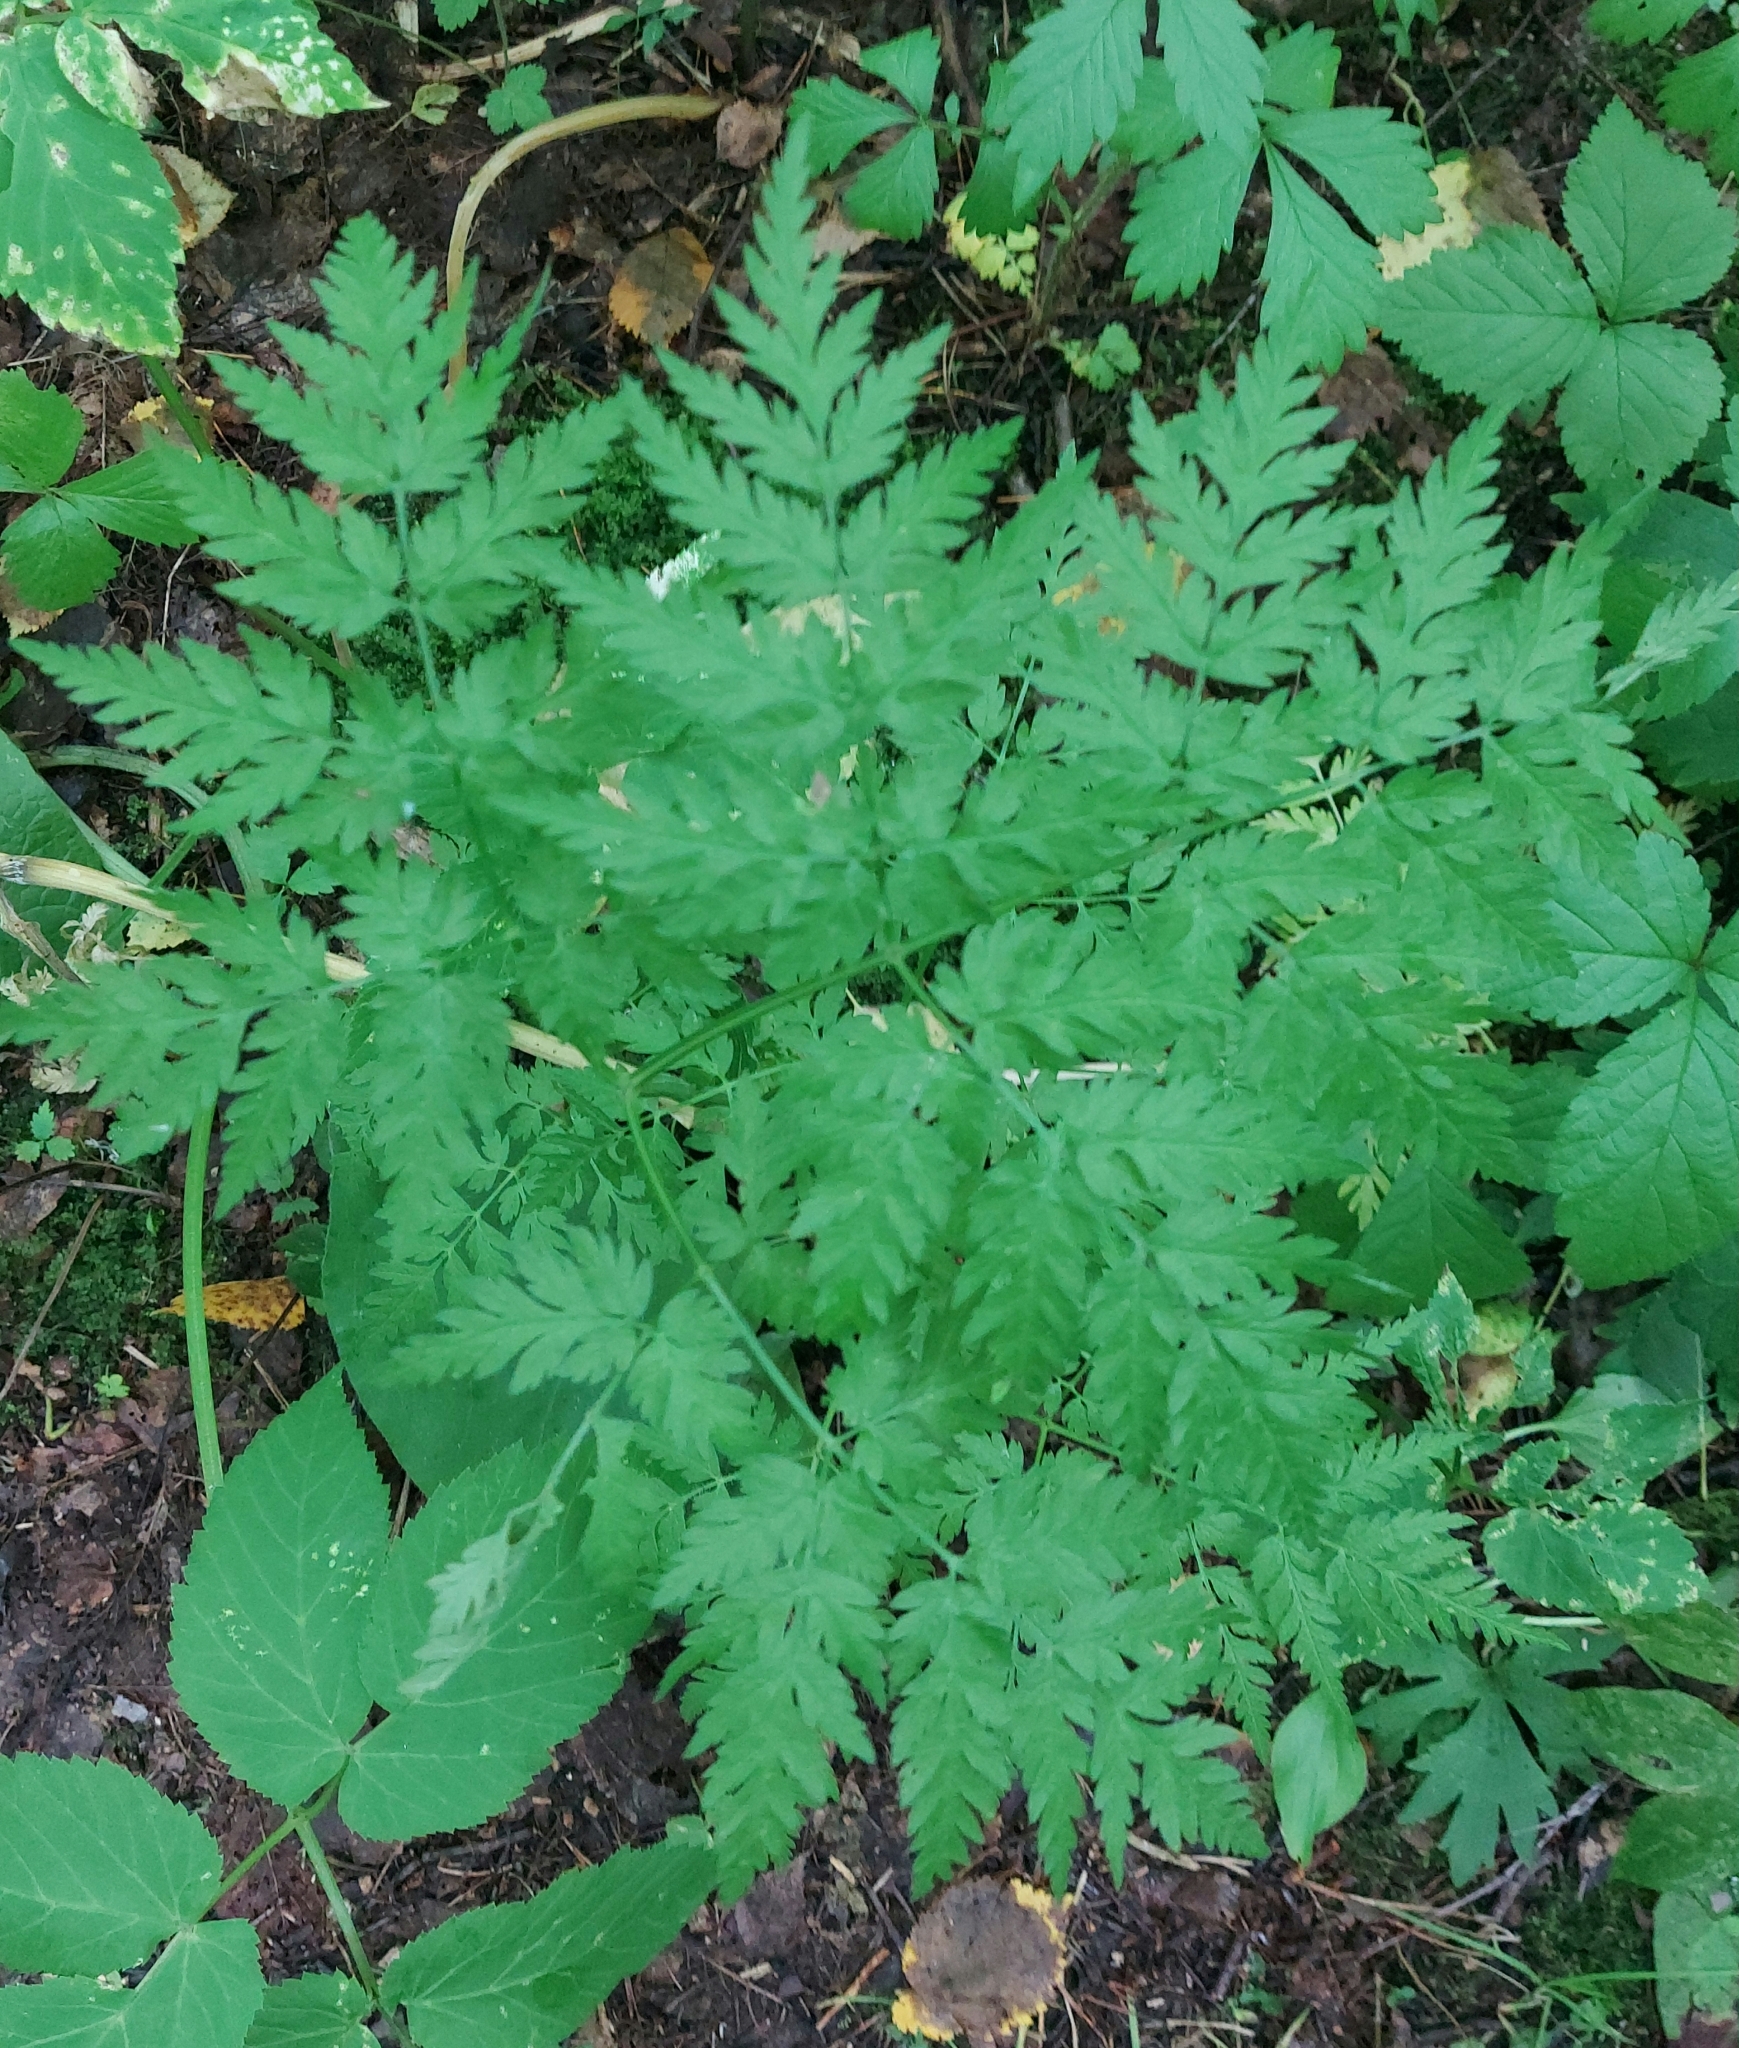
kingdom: Plantae
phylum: Tracheophyta
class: Magnoliopsida
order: Apiales
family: Apiaceae
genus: Anthriscus
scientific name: Anthriscus sylvestris
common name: Cow parsley
